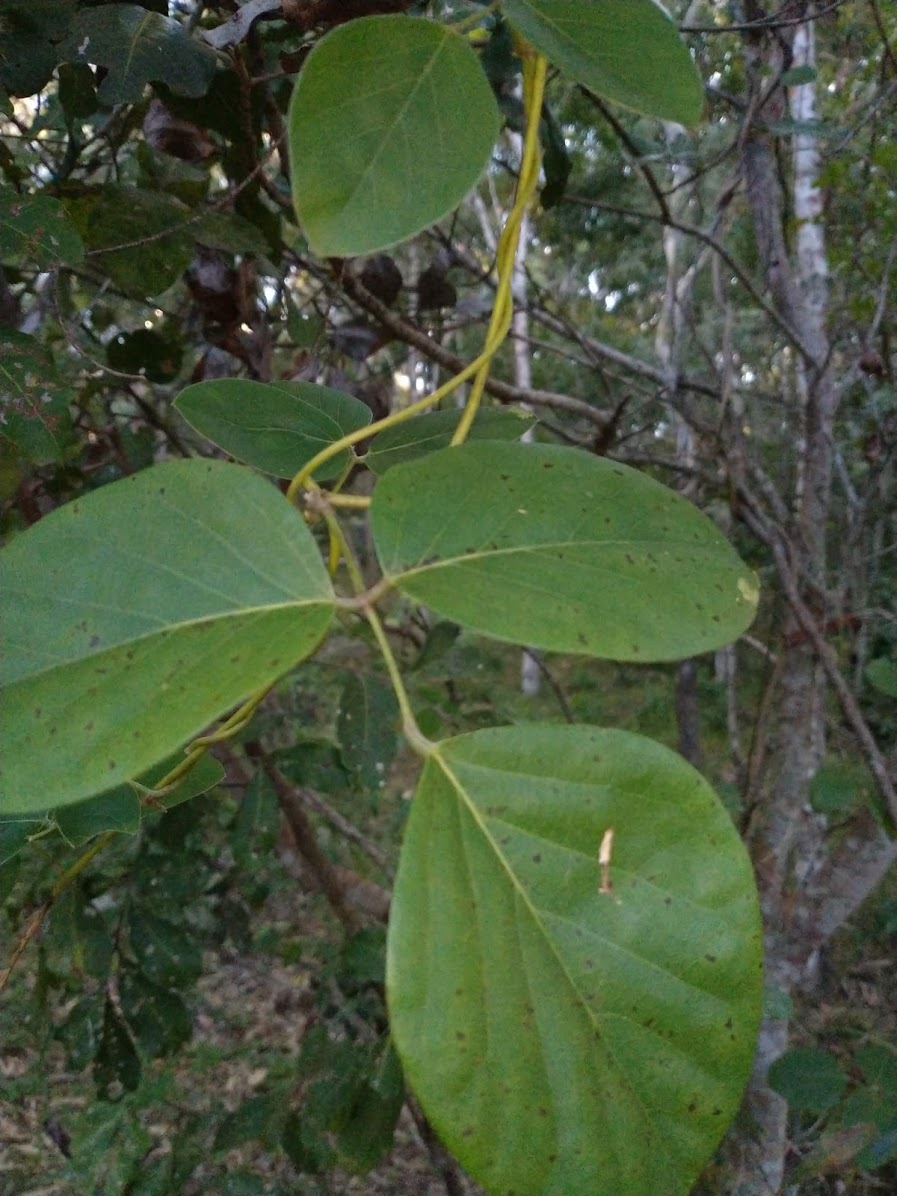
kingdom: Plantae
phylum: Tracheophyta
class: Magnoliopsida
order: Fabales
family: Fabaceae
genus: Canavalia
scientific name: Canavalia rosea
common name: Beach-bean
